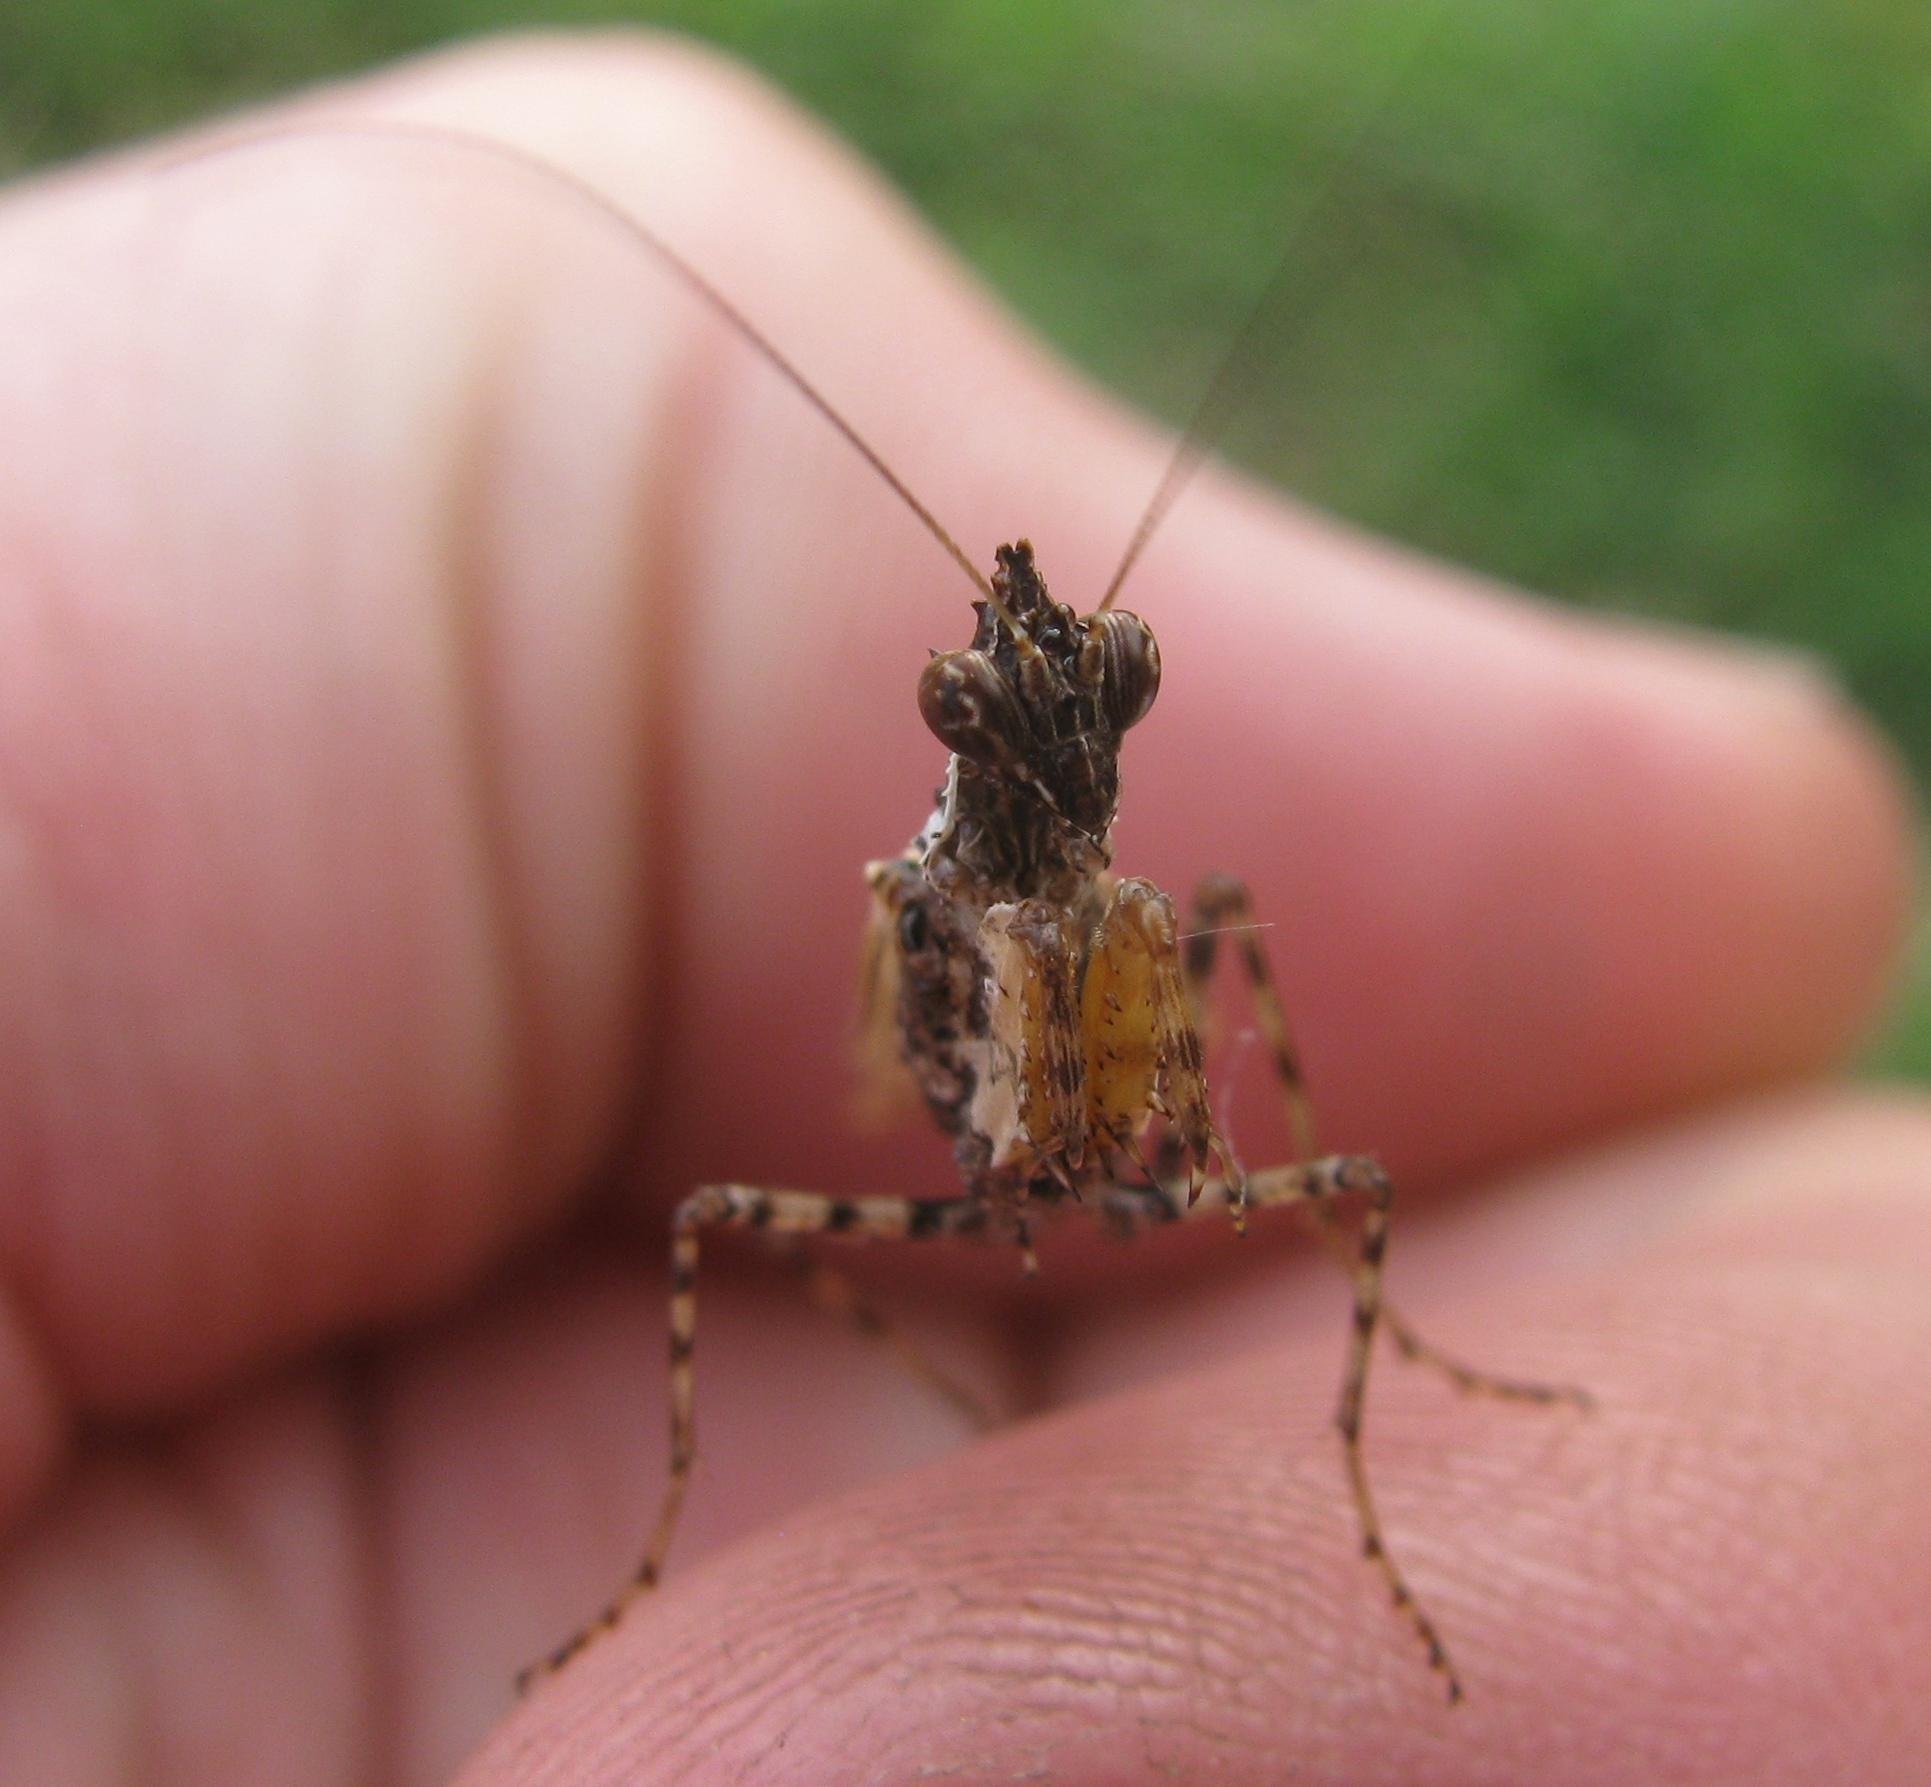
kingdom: Animalia
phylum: Arthropoda
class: Insecta
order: Mantodea
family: Hymenopodidae
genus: Oxypilus
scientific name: Oxypilus capensis
